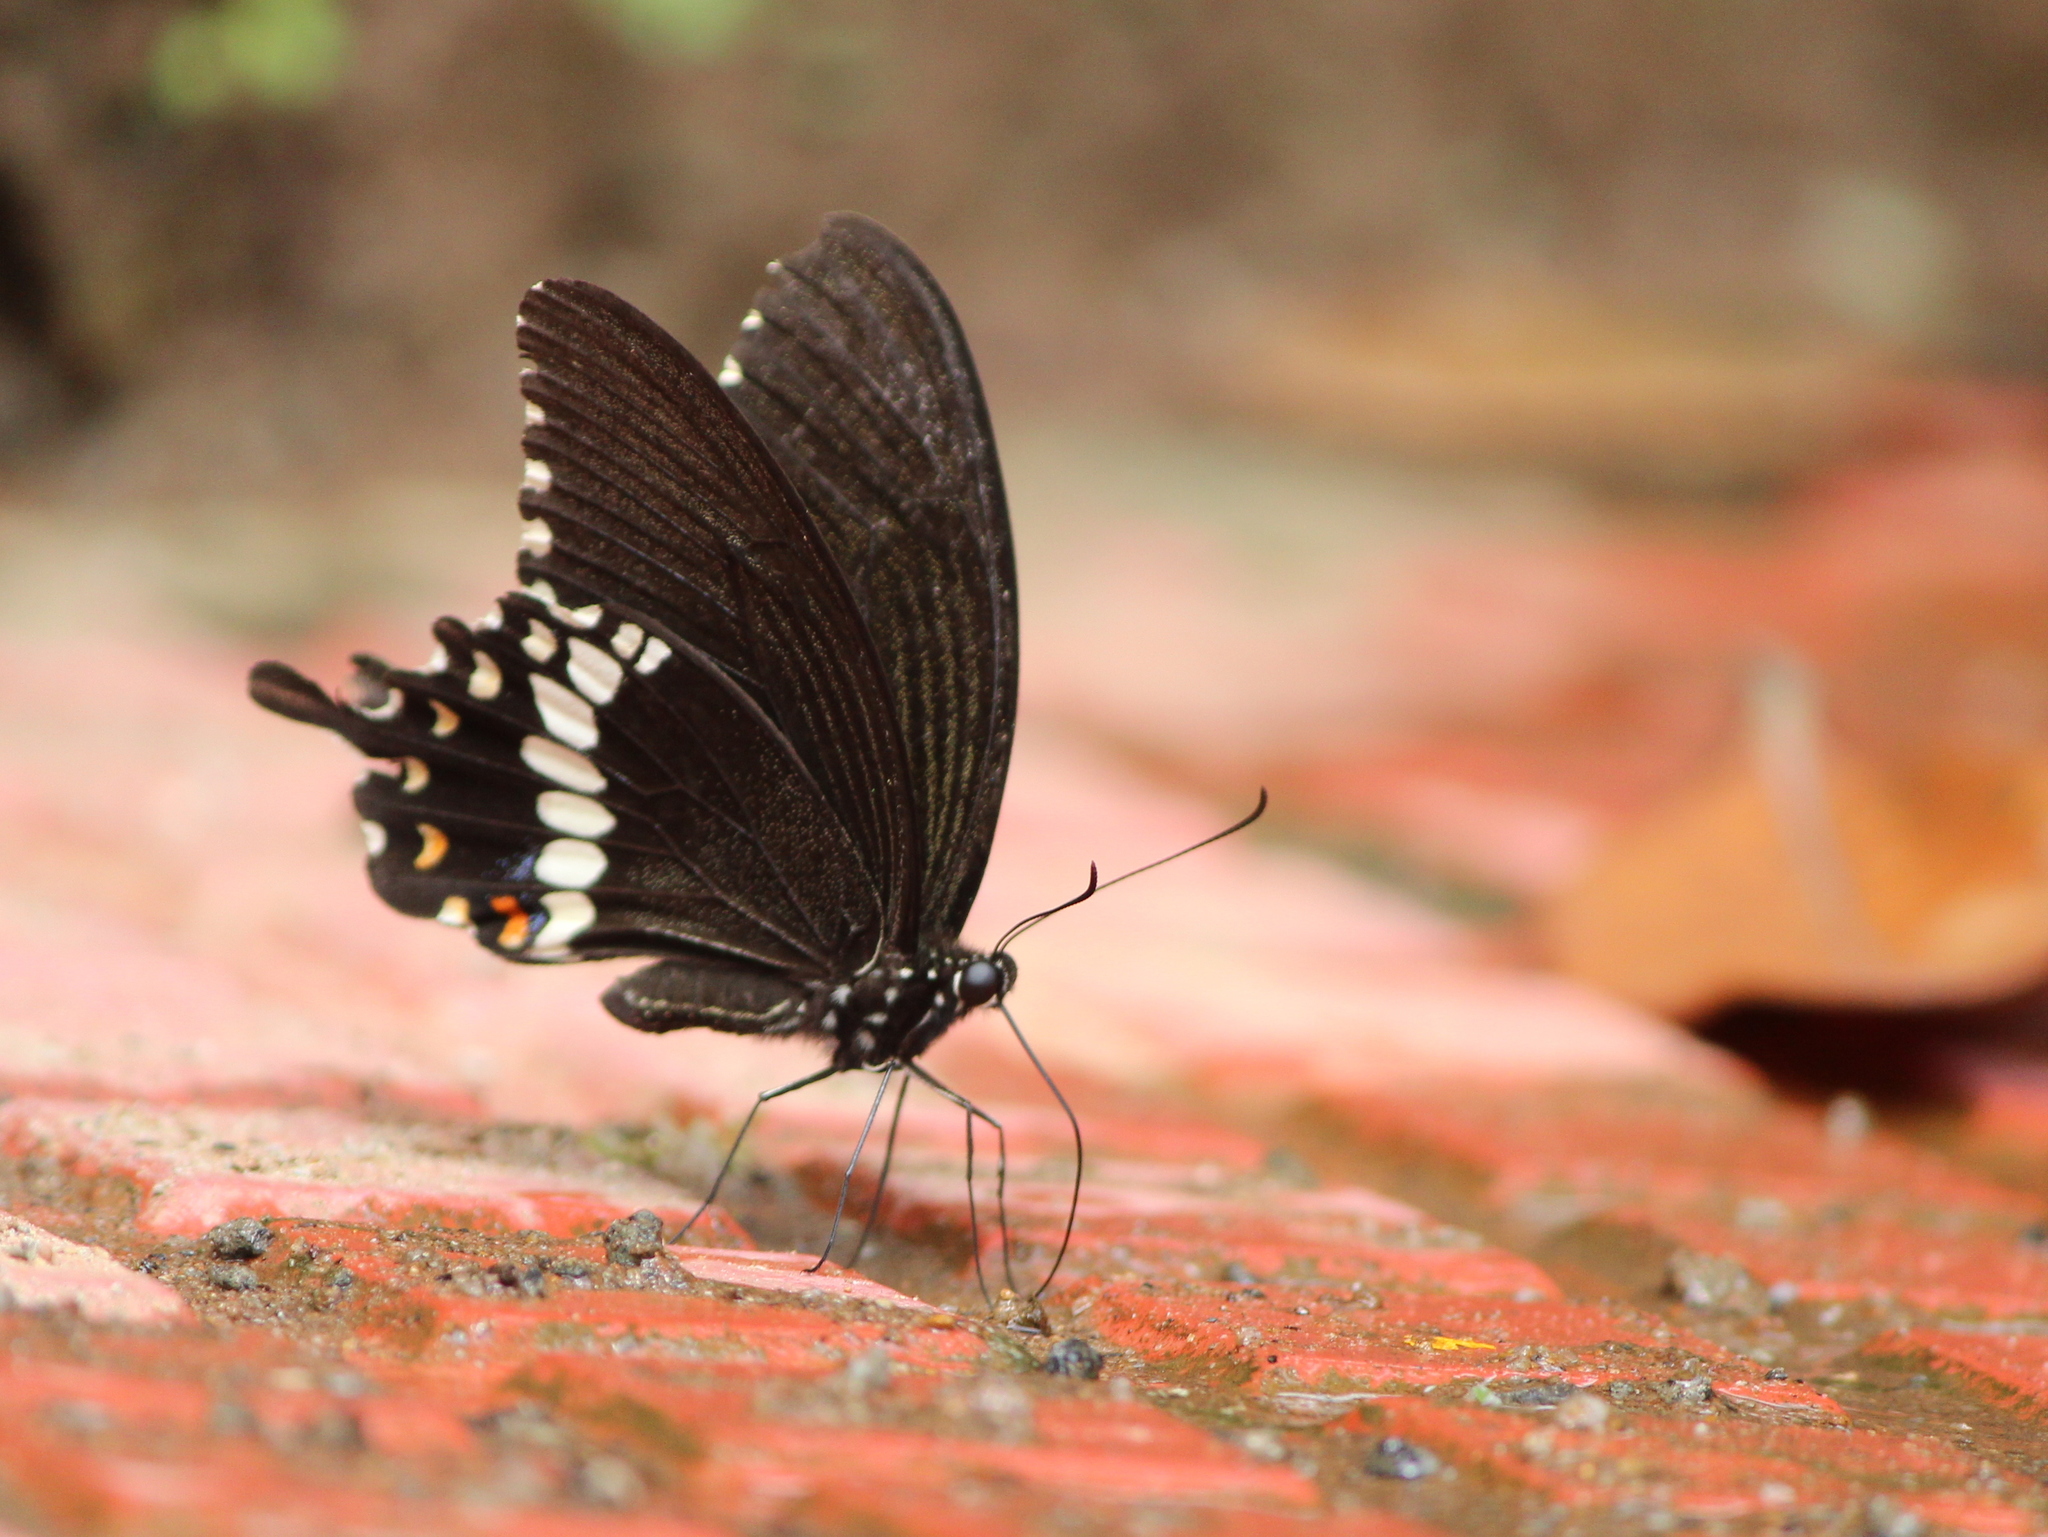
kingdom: Animalia
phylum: Arthropoda
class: Insecta
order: Lepidoptera
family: Papilionidae
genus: Papilio
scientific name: Papilio polytes
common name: Common mormon
